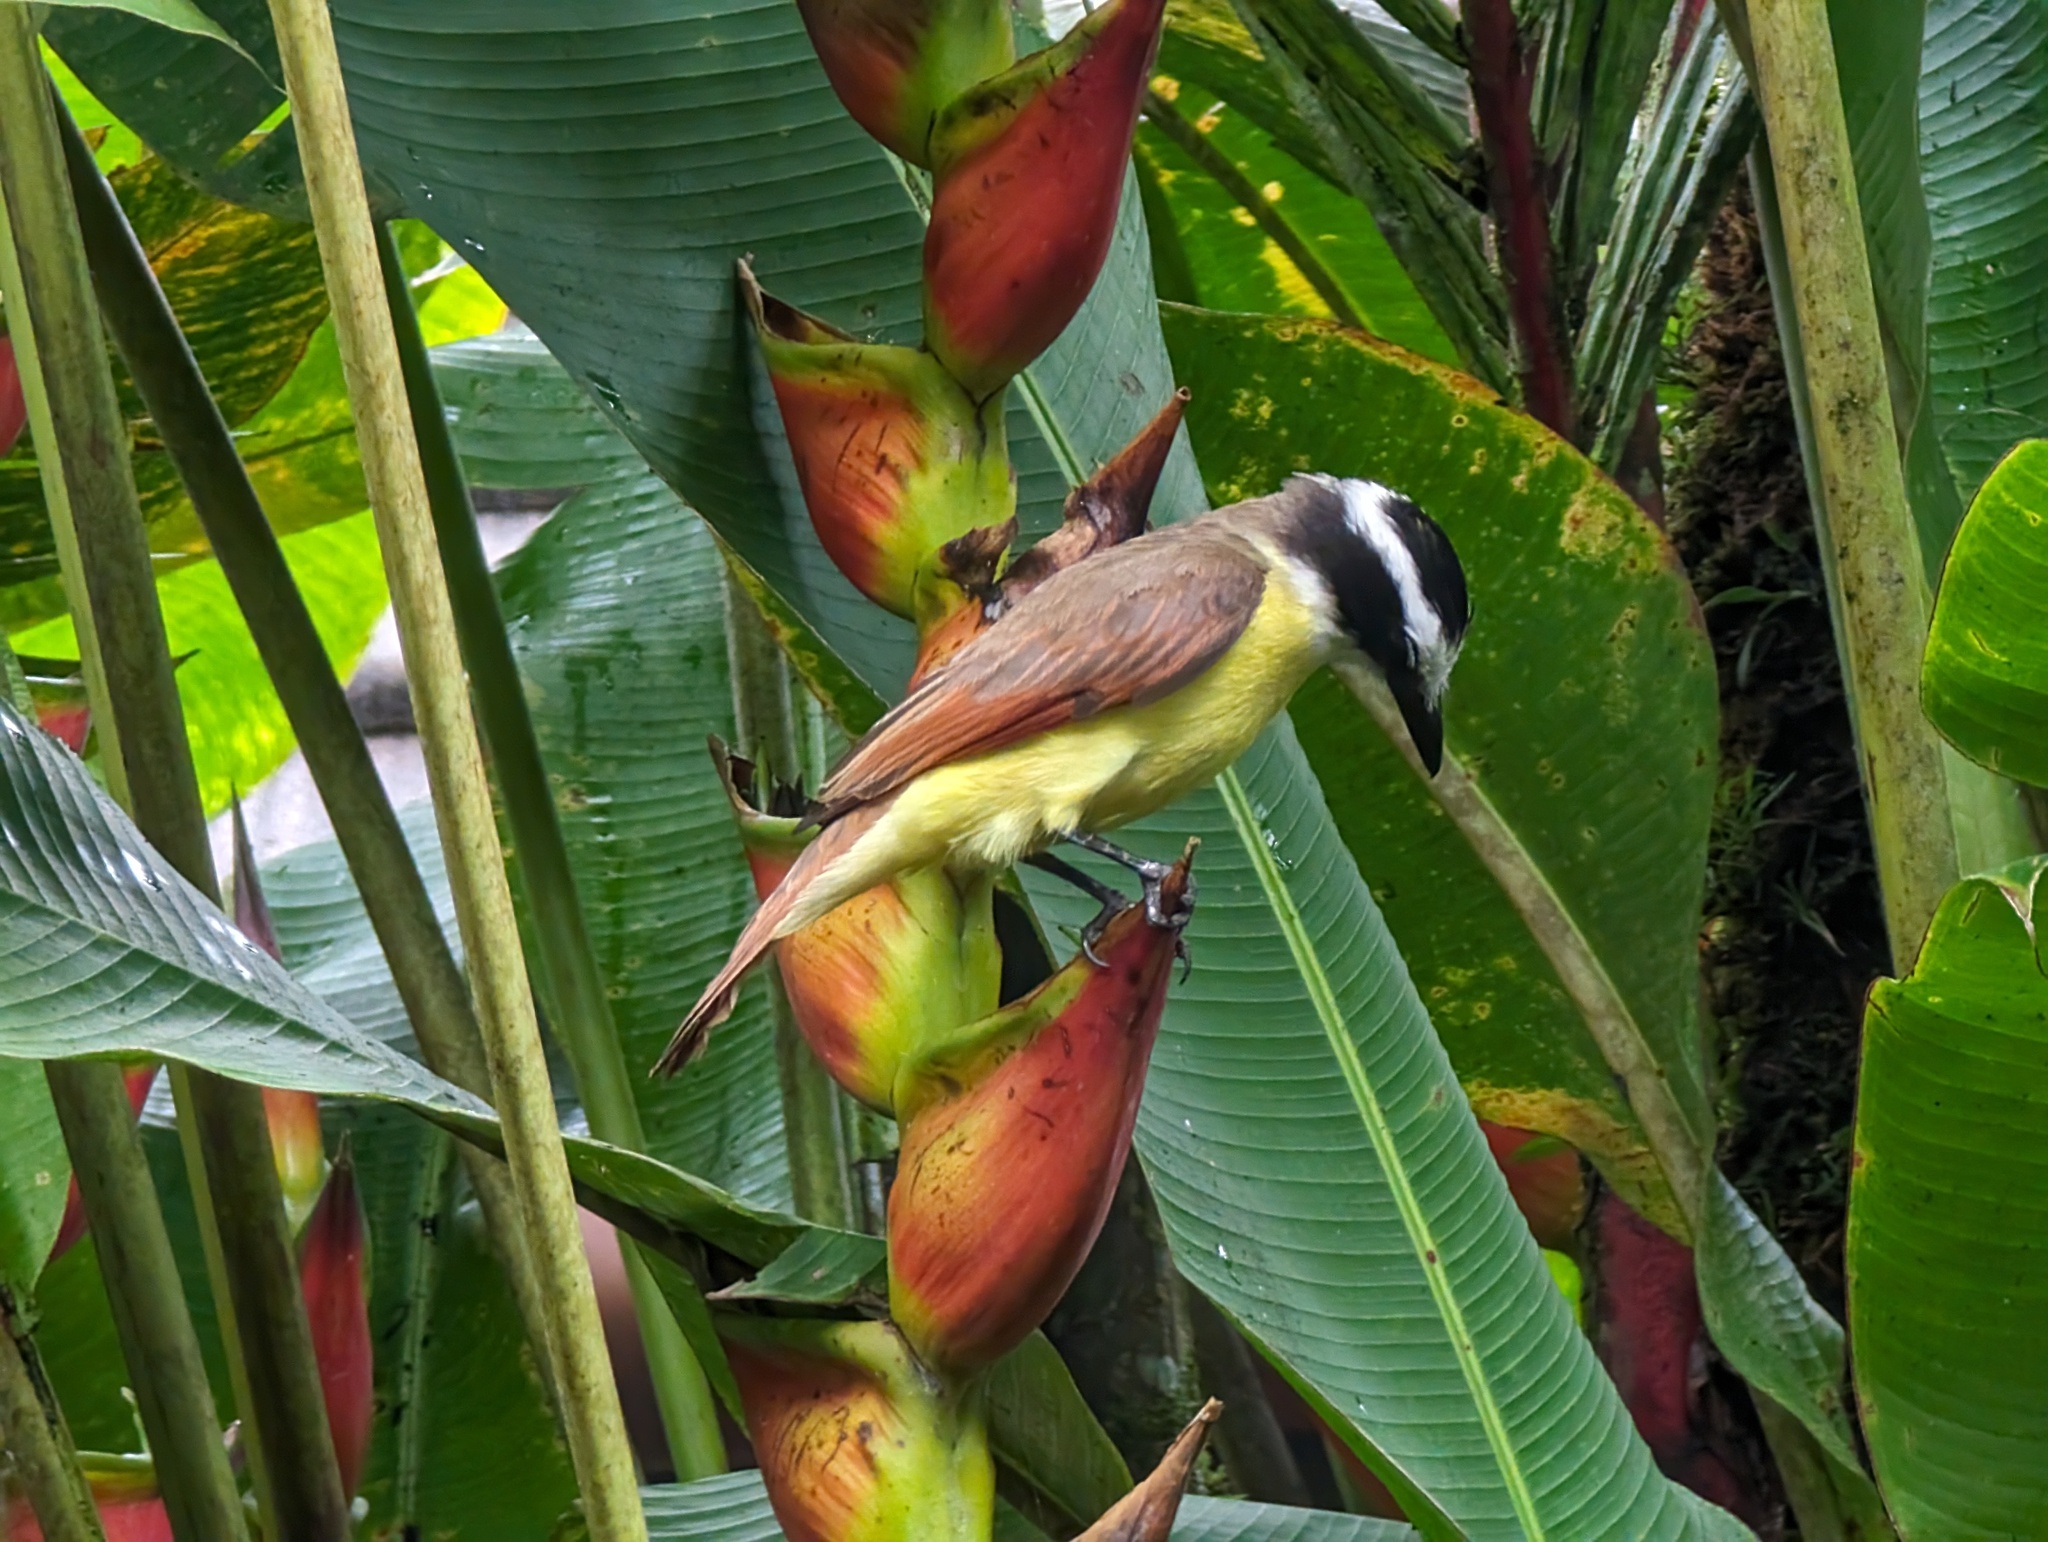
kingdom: Animalia
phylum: Chordata
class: Aves
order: Passeriformes
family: Tyrannidae
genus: Pitangus
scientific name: Pitangus sulphuratus
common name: Great kiskadee
